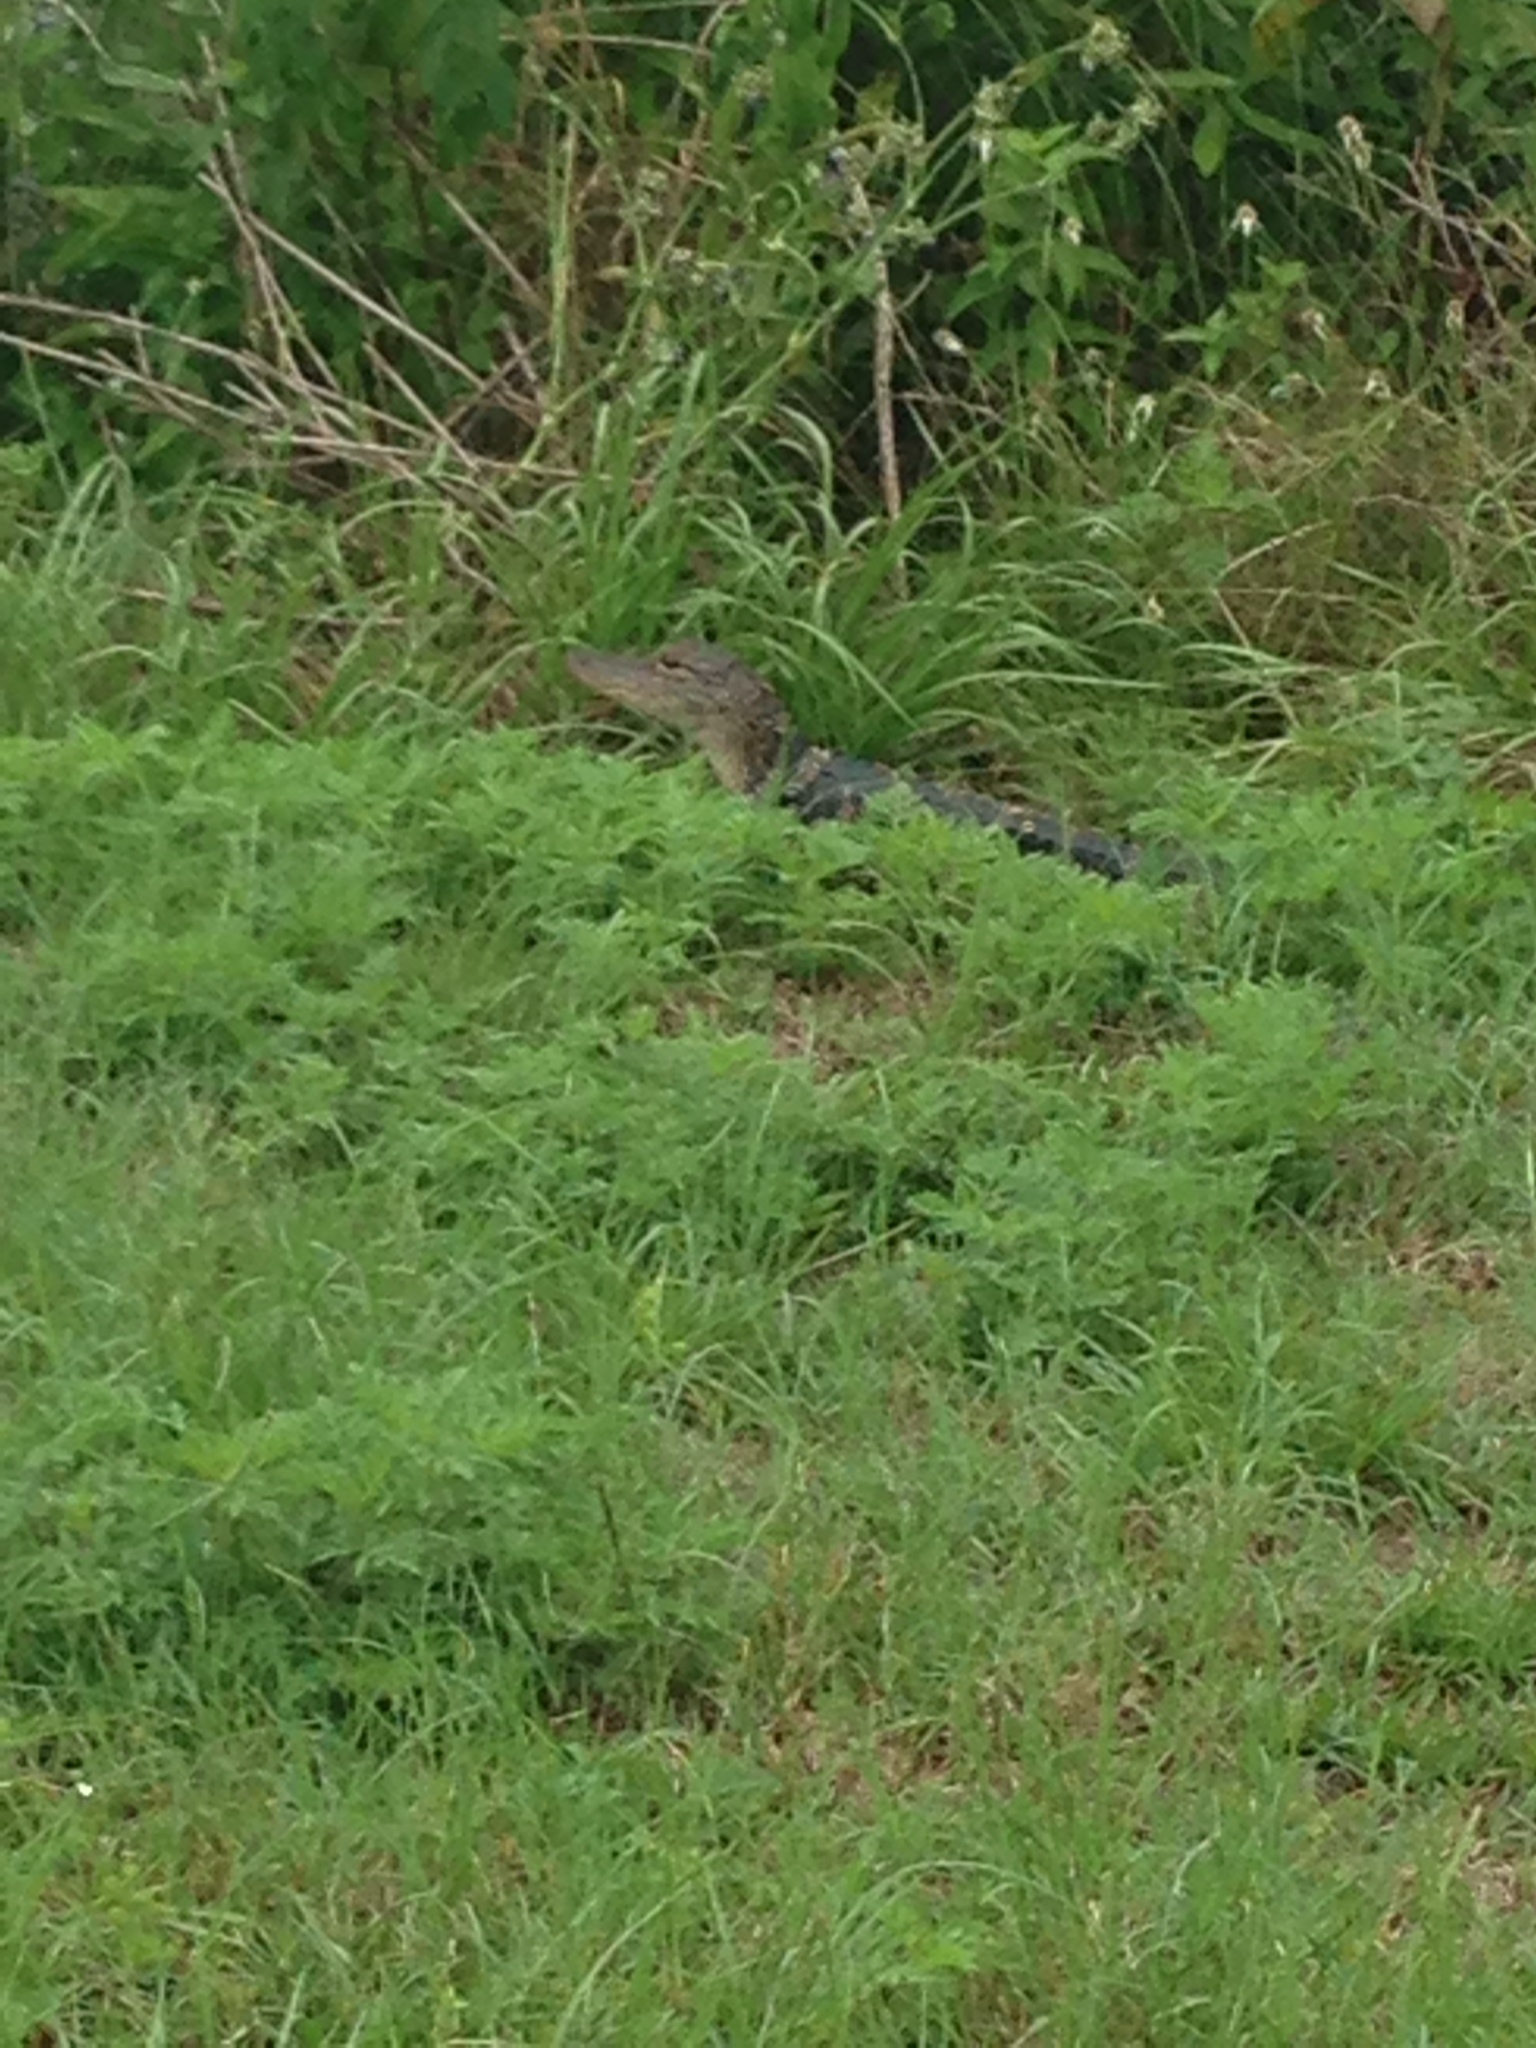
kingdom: Animalia
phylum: Chordata
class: Crocodylia
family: Alligatoridae
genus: Alligator
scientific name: Alligator mississippiensis
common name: American alligator
